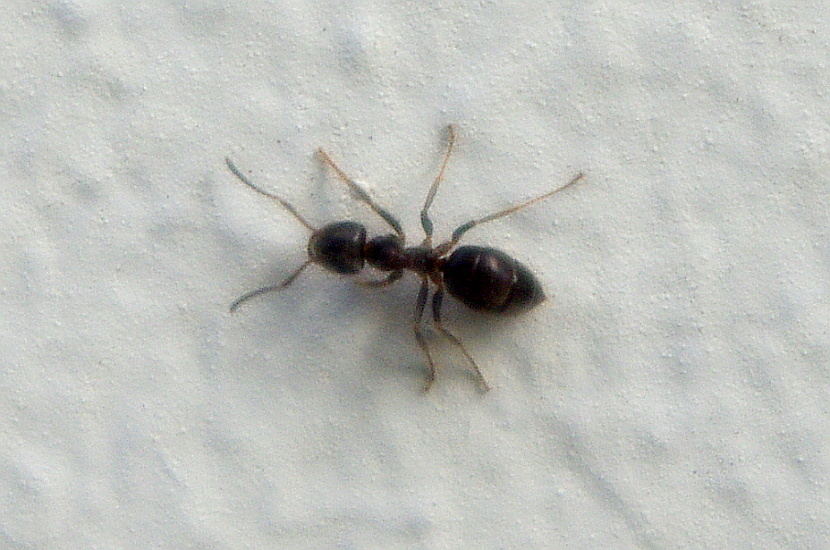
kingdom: Animalia
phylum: Arthropoda
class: Insecta
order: Hymenoptera
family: Formicidae
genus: Lasius
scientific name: Lasius
